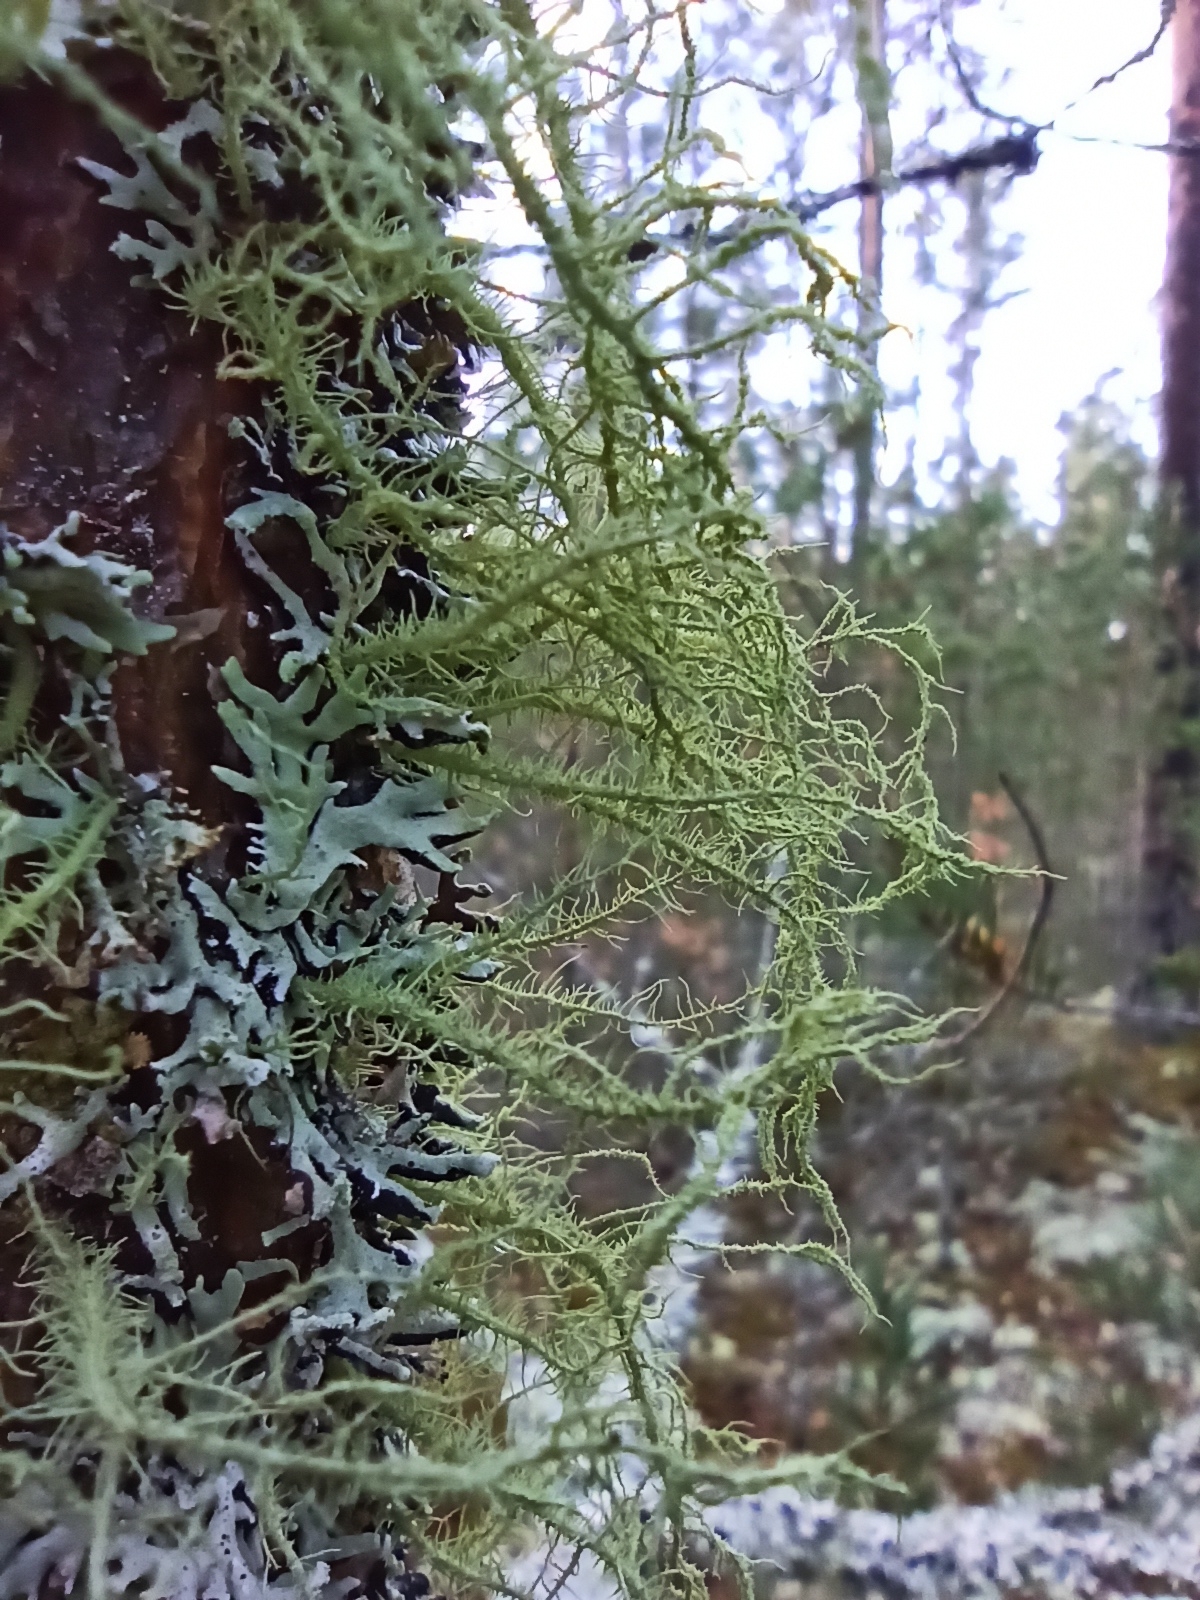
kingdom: Fungi
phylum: Ascomycota
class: Lecanoromycetes
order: Lecanorales
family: Parmeliaceae
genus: Usnea
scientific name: Usnea hirta
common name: Bristly beard lichen
